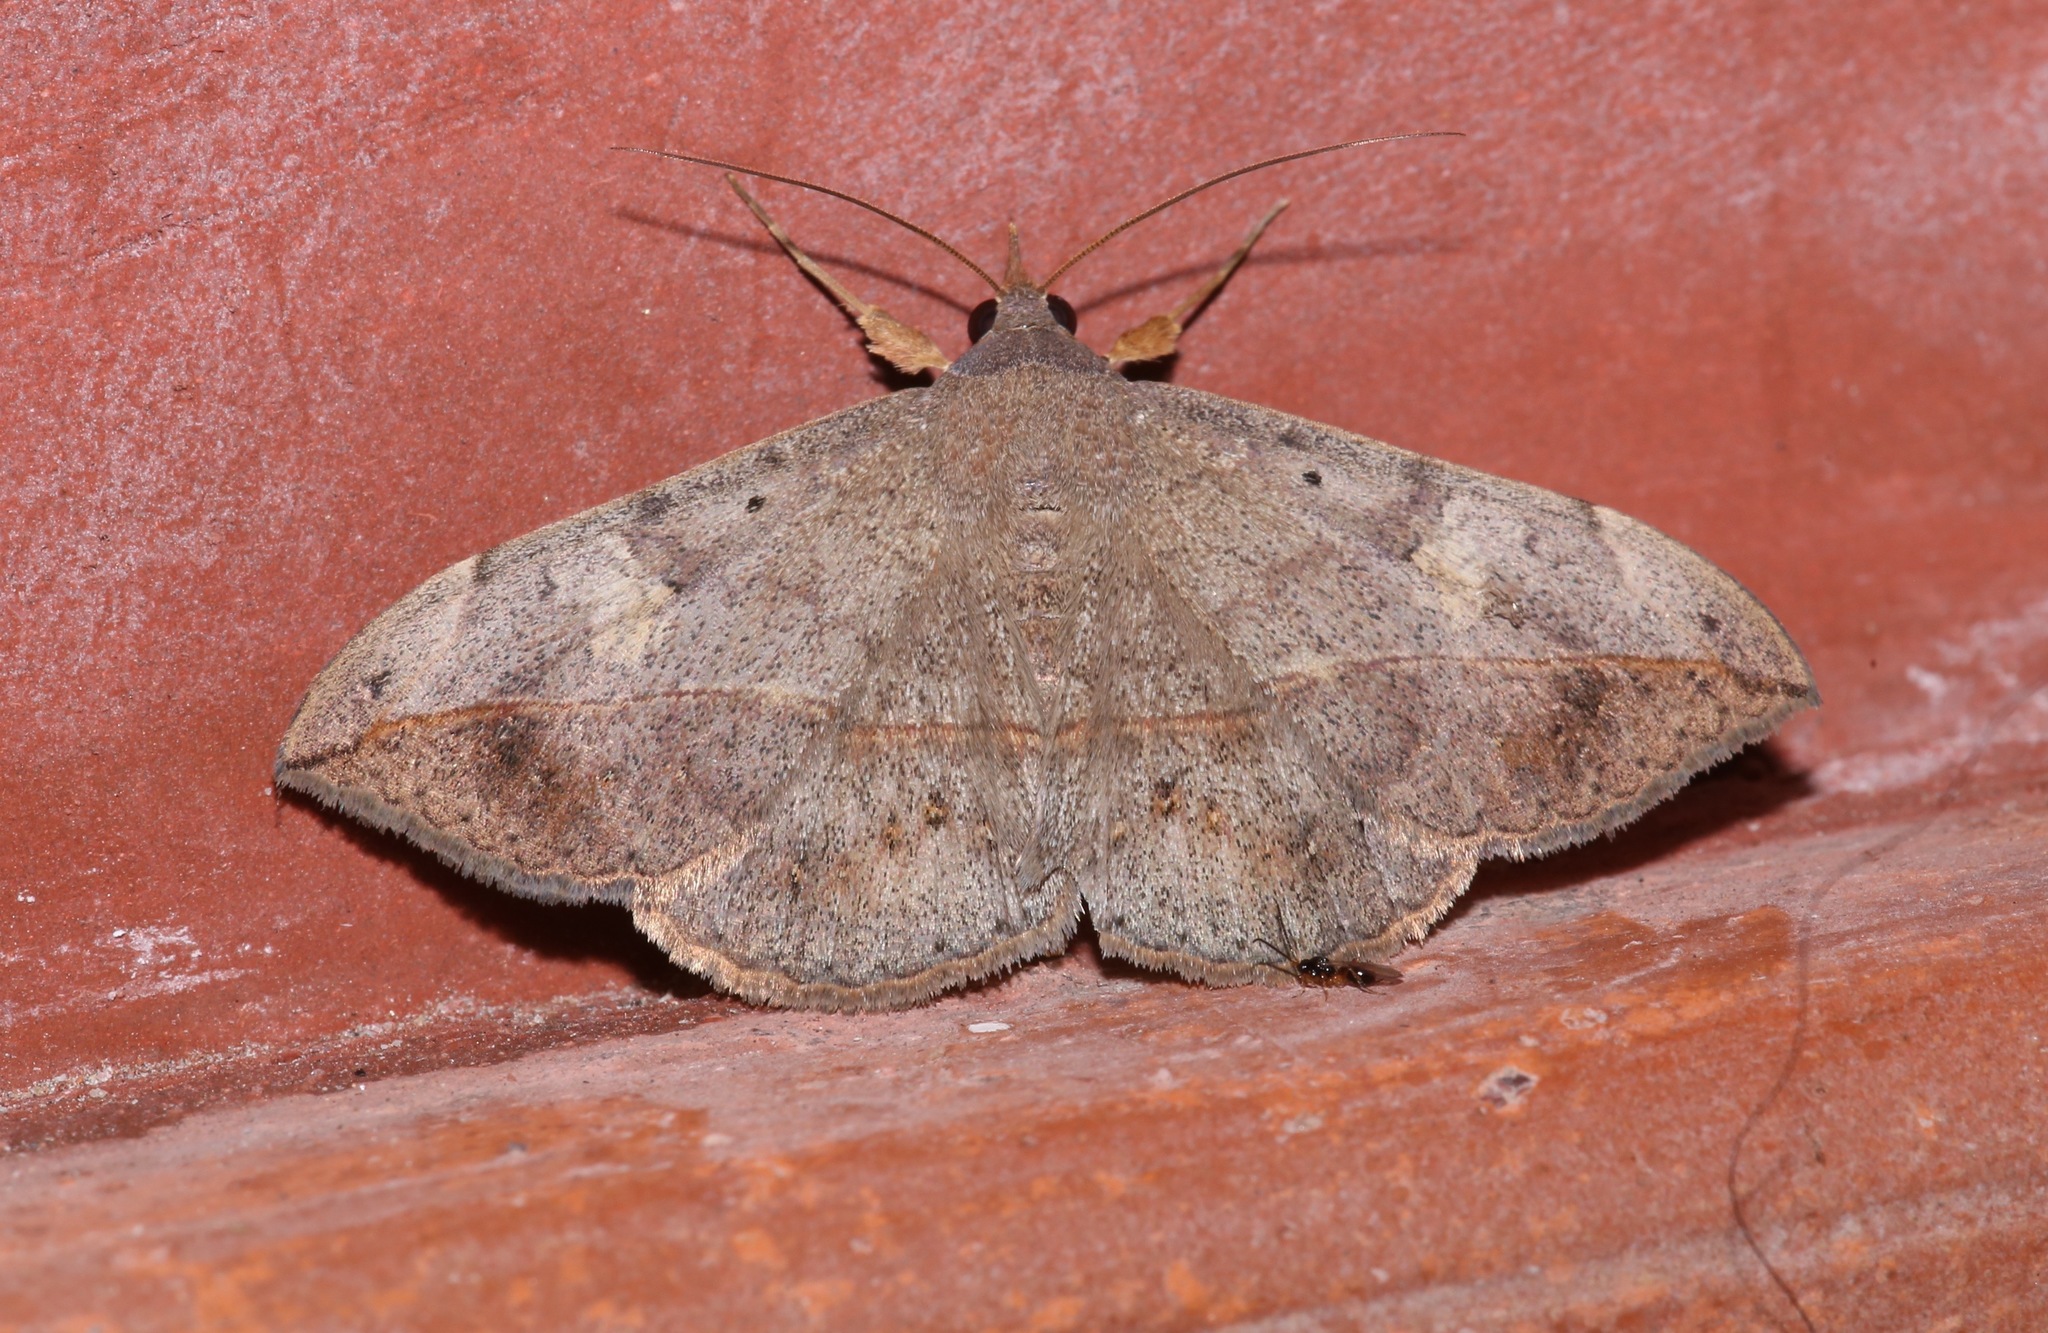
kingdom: Animalia
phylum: Arthropoda
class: Insecta
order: Lepidoptera
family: Erebidae
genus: Anticarsia
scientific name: Anticarsia gemmatalis
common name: Cutworm moth
